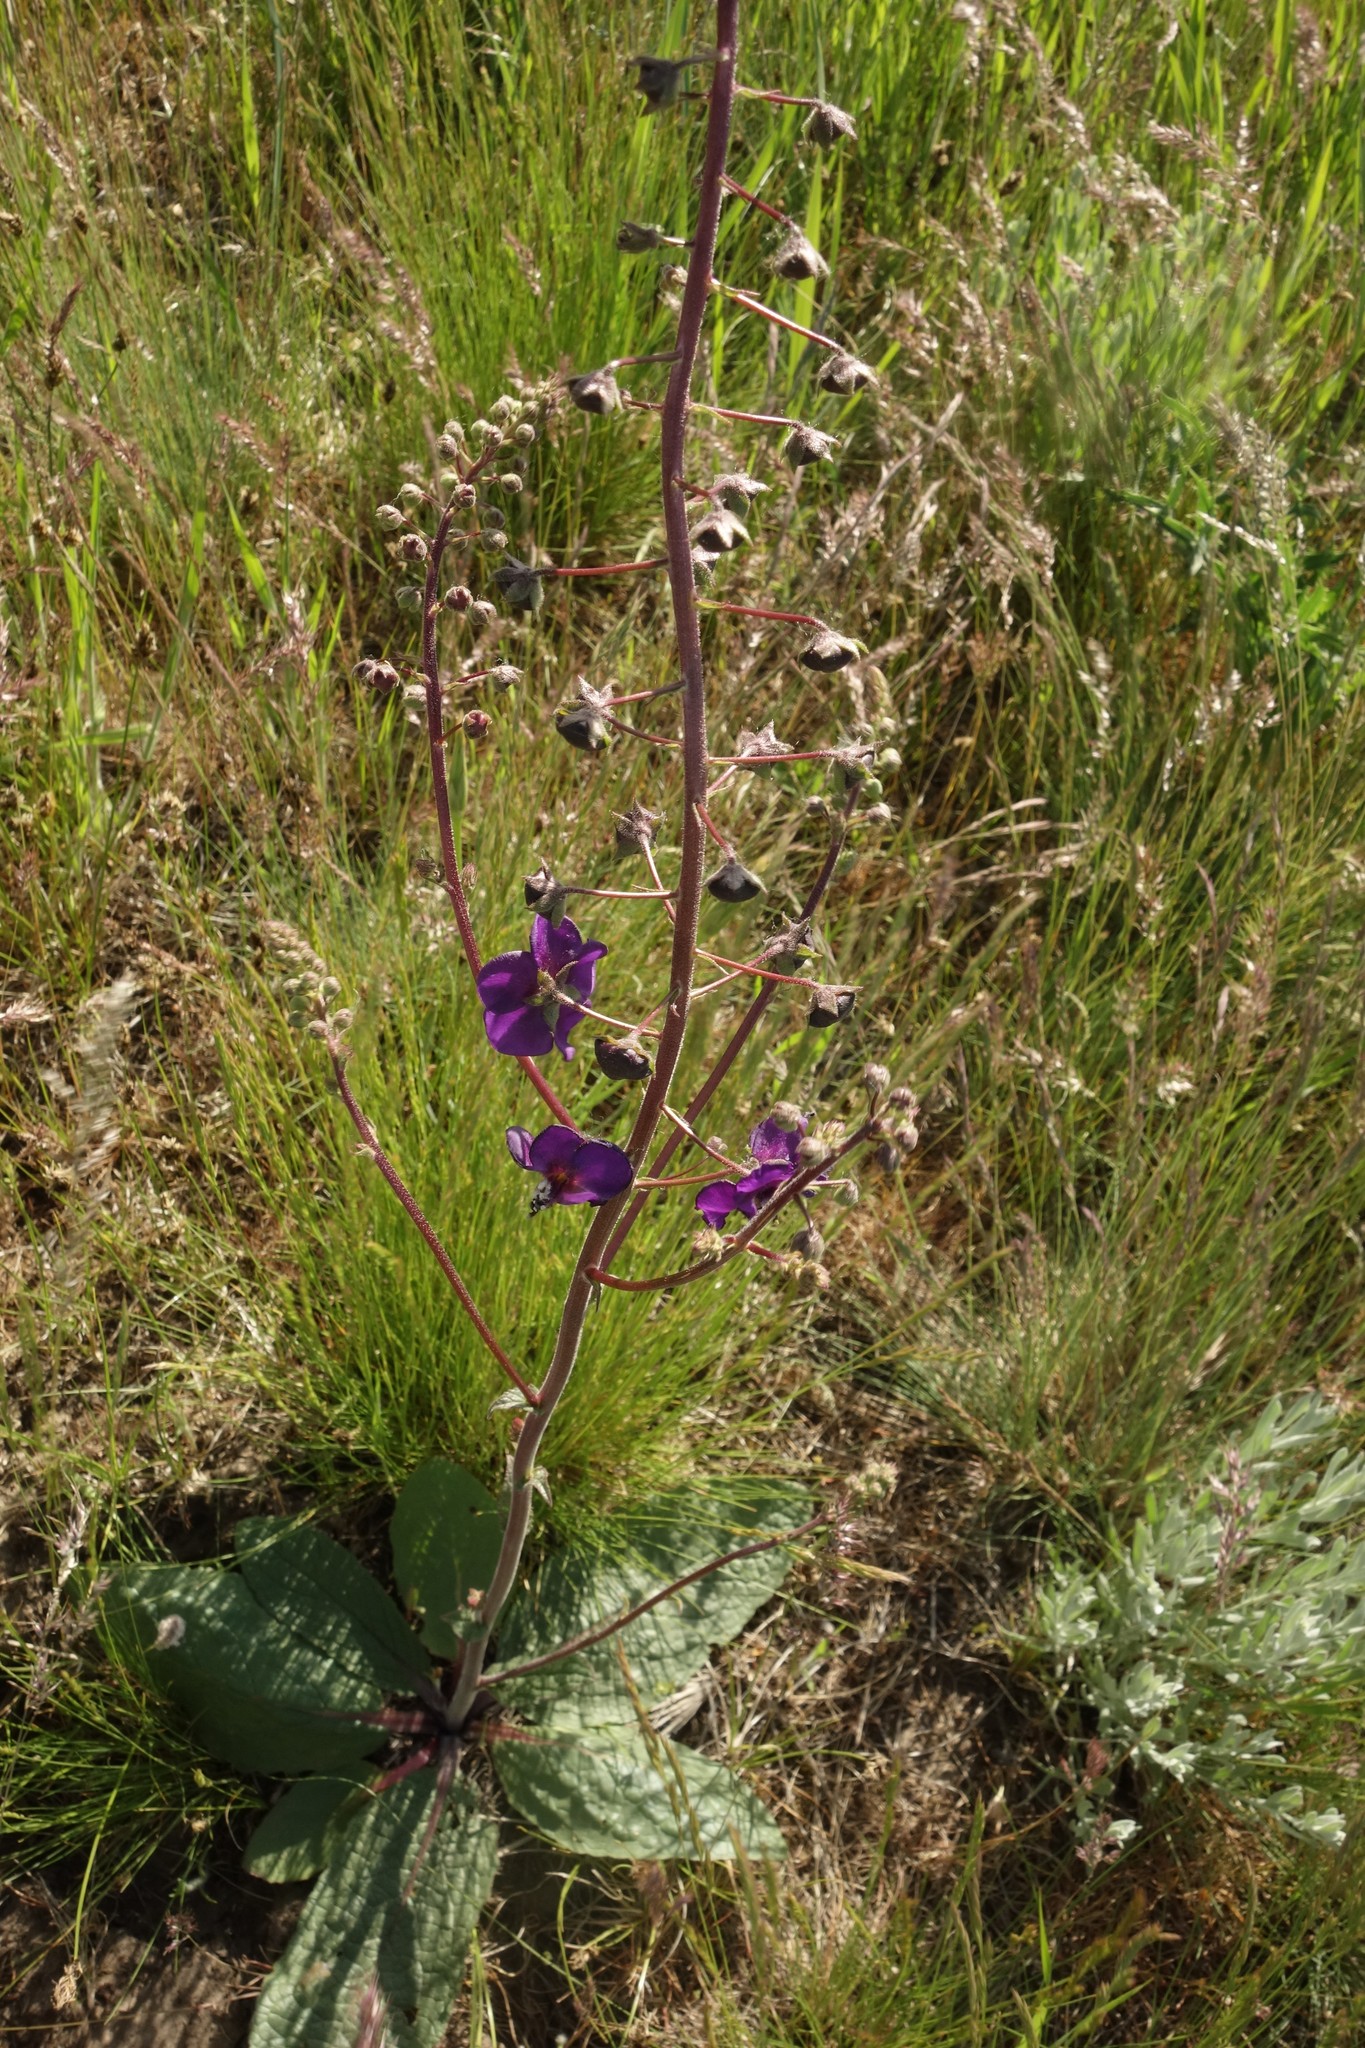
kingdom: Plantae
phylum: Tracheophyta
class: Magnoliopsida
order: Lamiales
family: Scrophulariaceae
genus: Verbascum
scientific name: Verbascum phoeniceum
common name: Purple mullein
